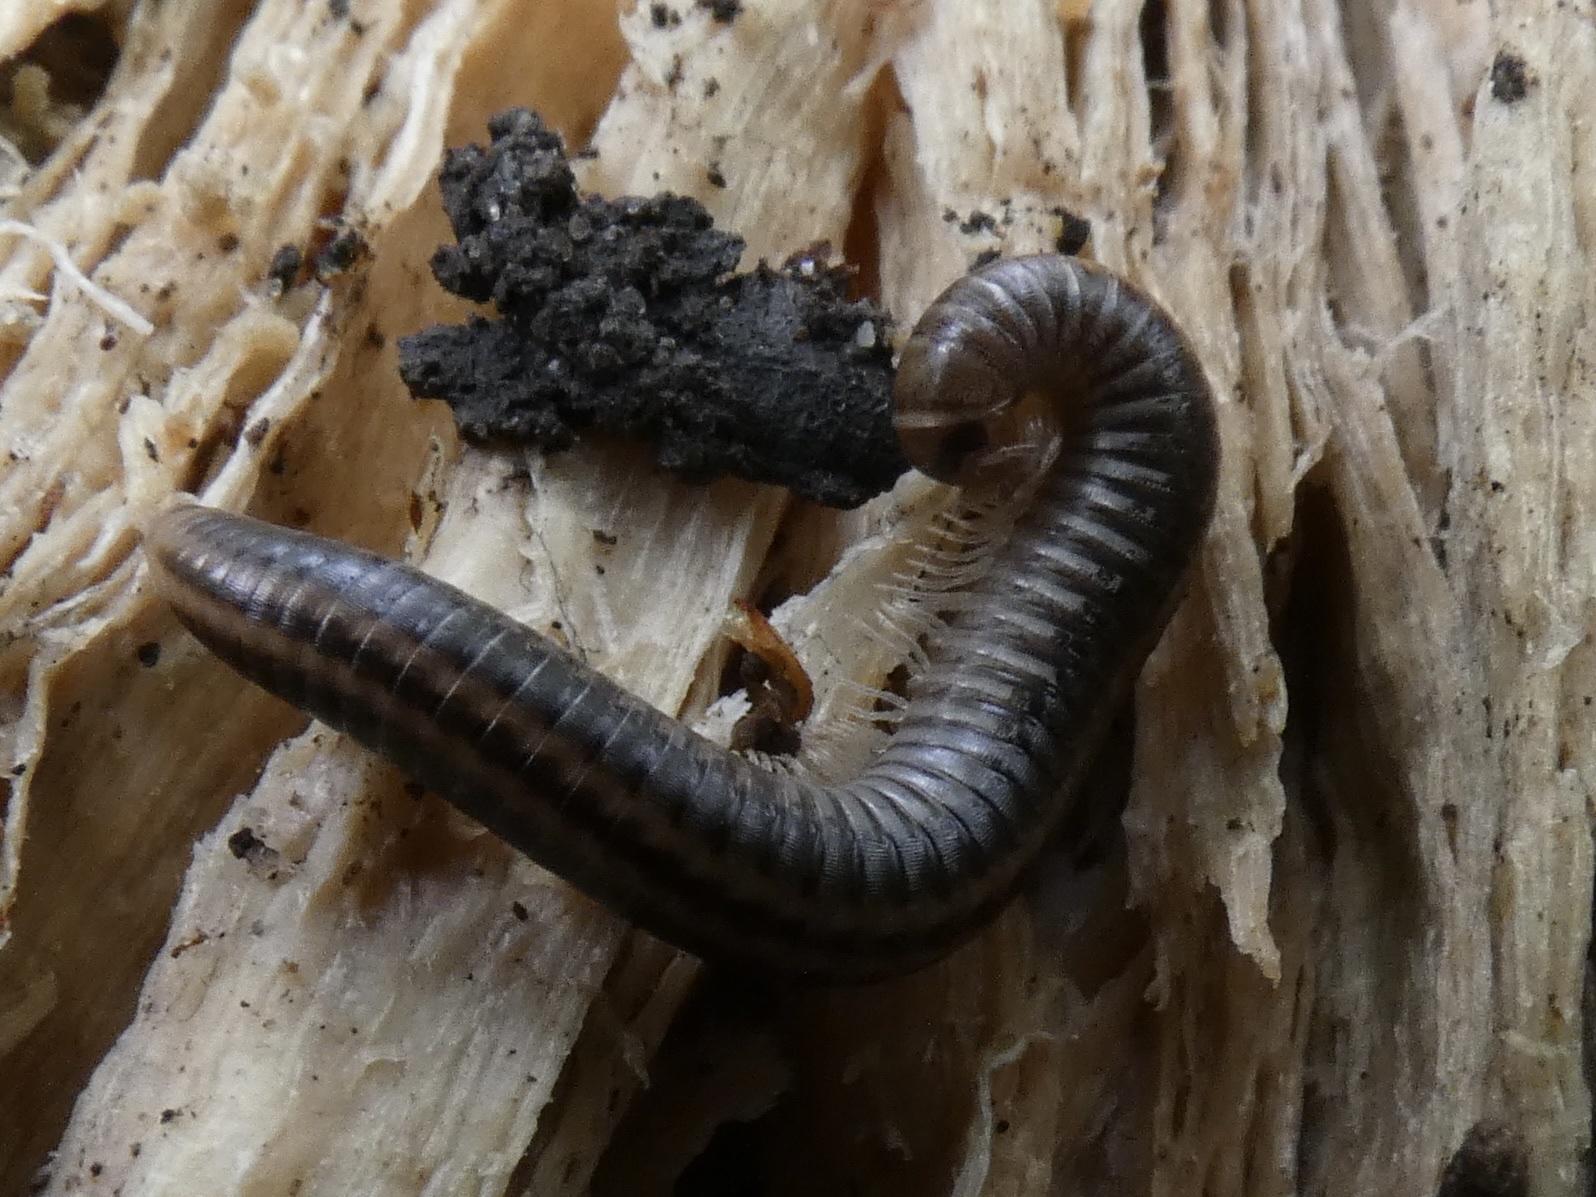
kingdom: Animalia
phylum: Arthropoda
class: Diplopoda
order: Julida
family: Julidae
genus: Ommatoiulus
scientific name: Ommatoiulus sabulosus
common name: Striped millipede
